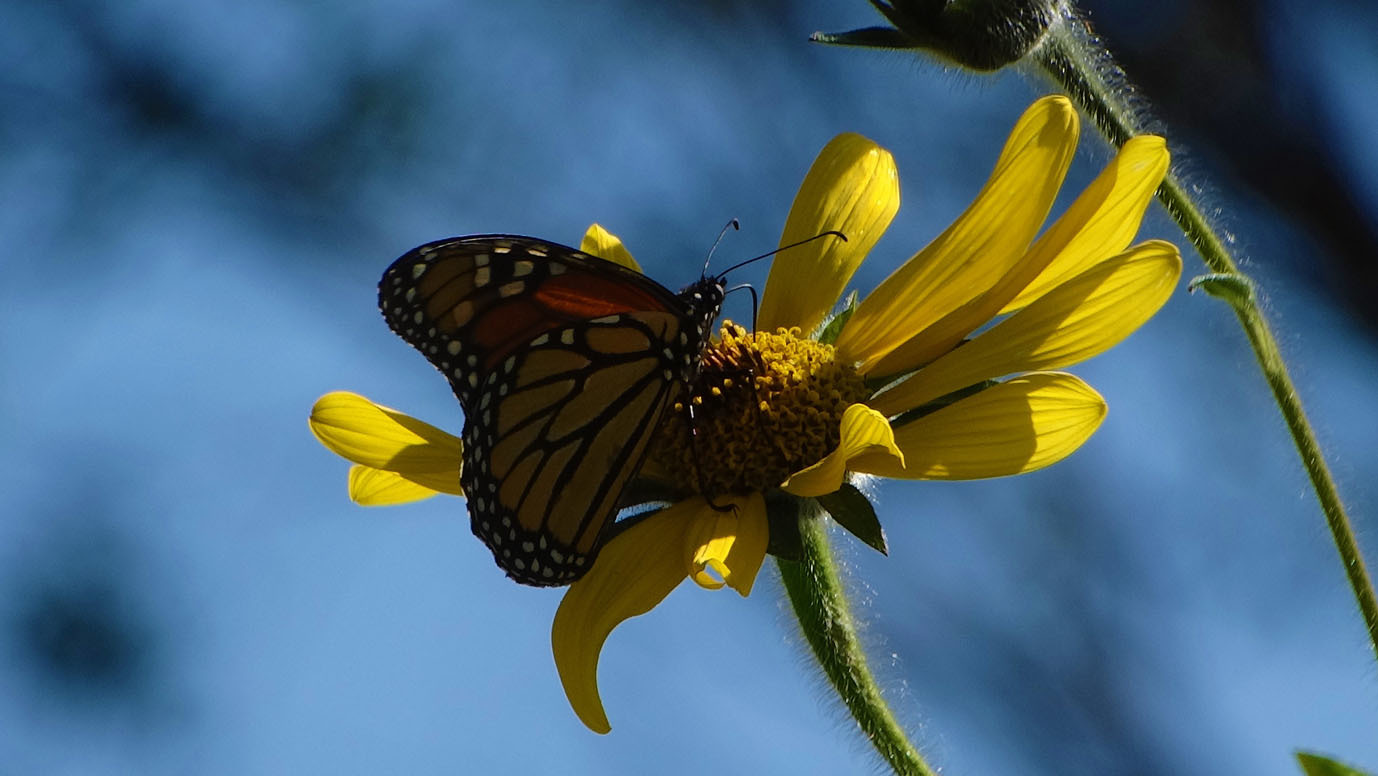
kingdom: Animalia
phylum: Arthropoda
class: Insecta
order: Lepidoptera
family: Nymphalidae
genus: Danaus
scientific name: Danaus plexippus
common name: Monarch
